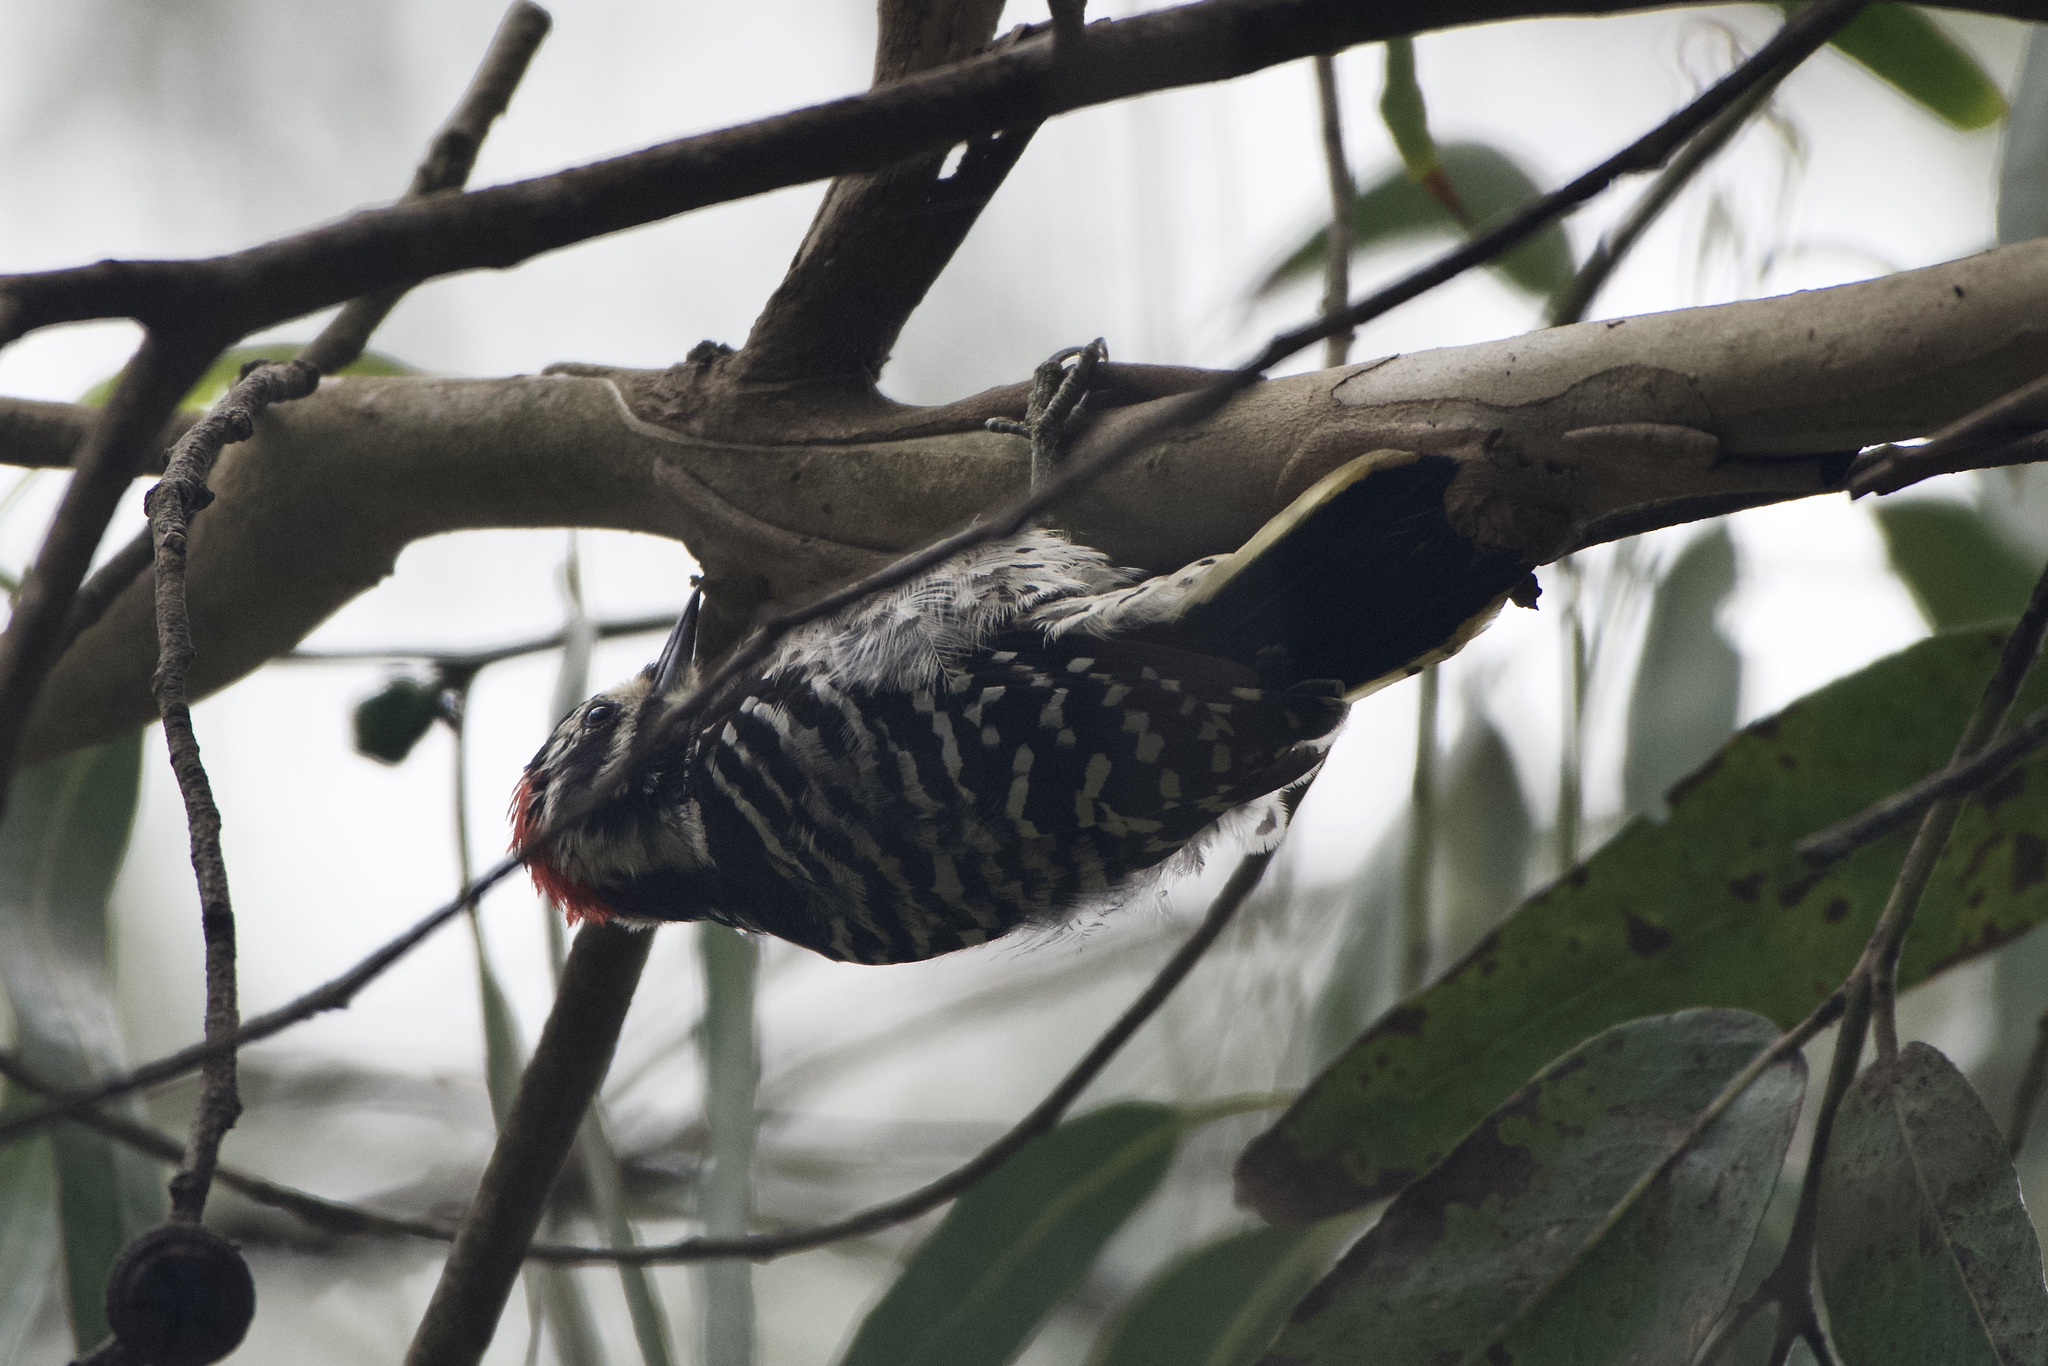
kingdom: Animalia
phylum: Chordata
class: Aves
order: Piciformes
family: Picidae
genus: Dryobates
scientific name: Dryobates nuttallii
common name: Nuttall's woodpecker
